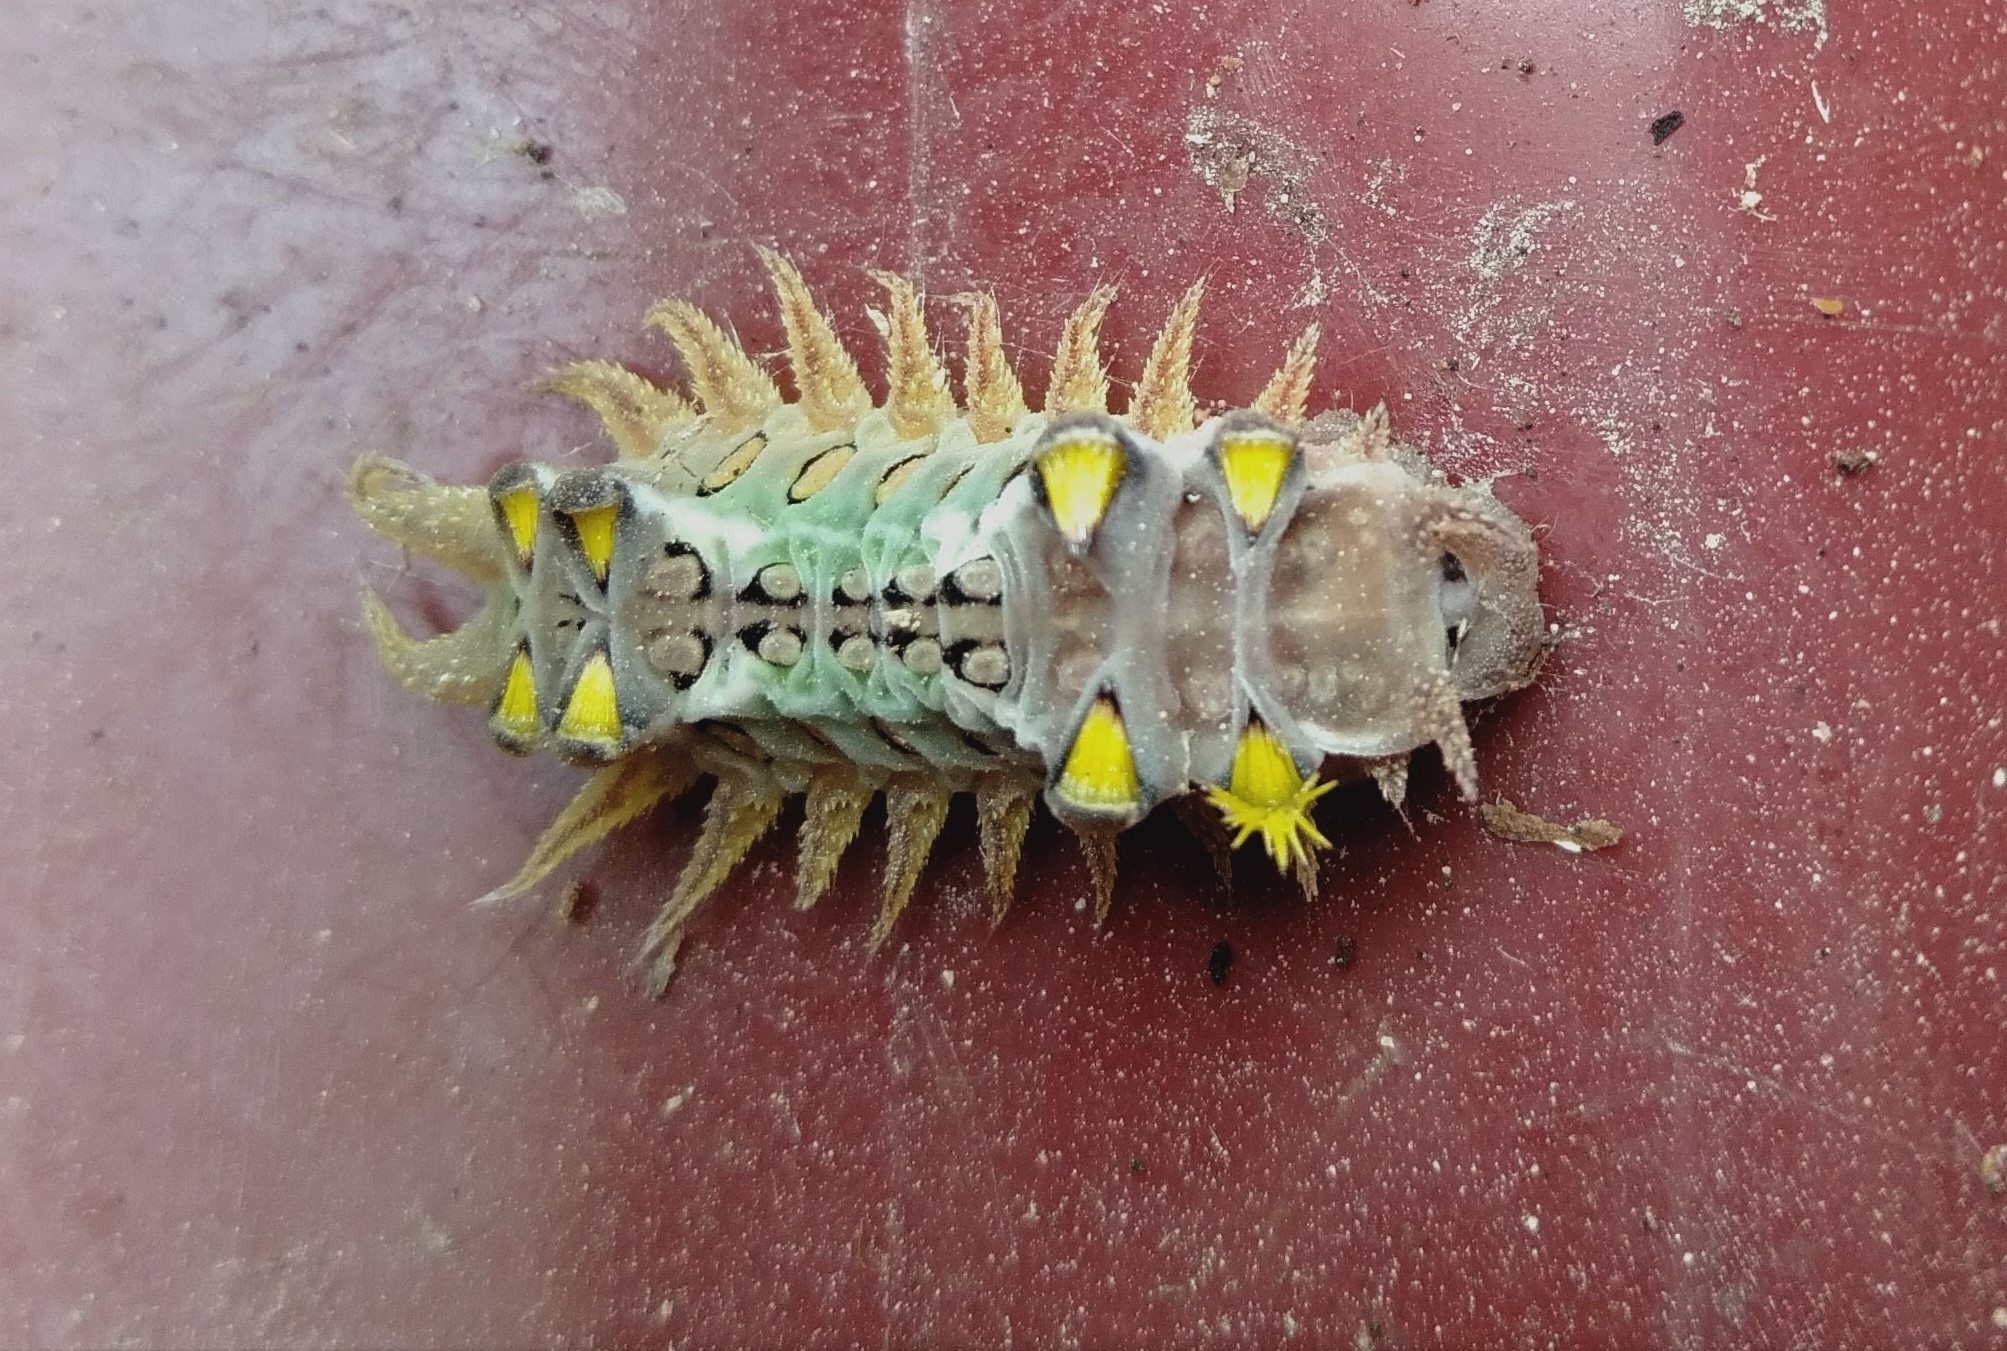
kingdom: Animalia
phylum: Arthropoda
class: Insecta
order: Lepidoptera
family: Limacodidae
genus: Doratifera
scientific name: Doratifera oxleyi
